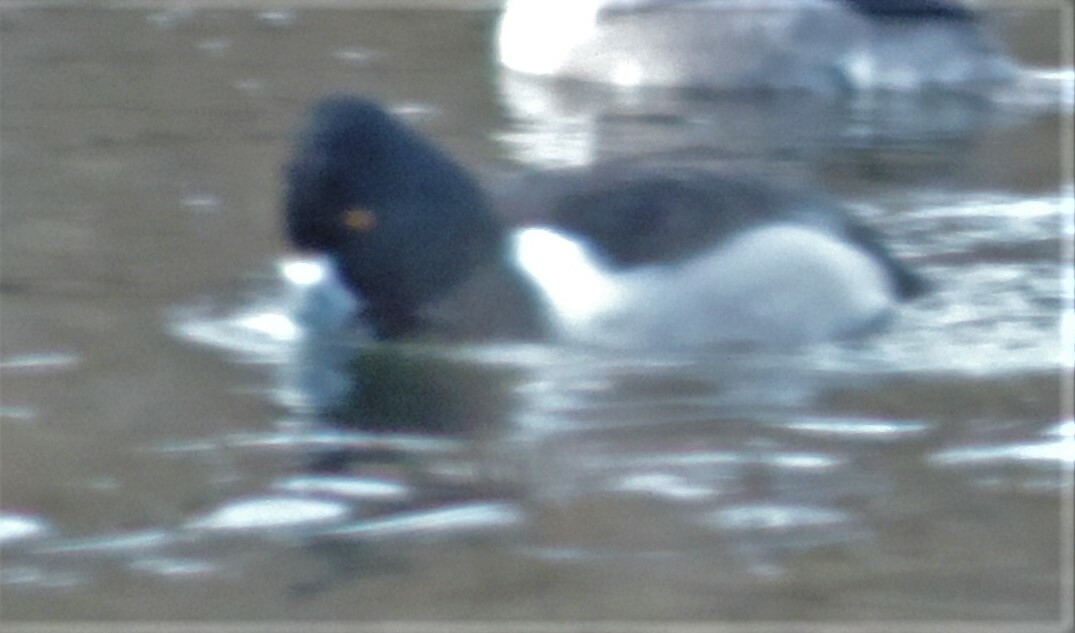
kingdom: Animalia
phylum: Chordata
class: Aves
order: Anseriformes
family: Anatidae
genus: Aythya
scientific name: Aythya collaris
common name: Ring-necked duck
